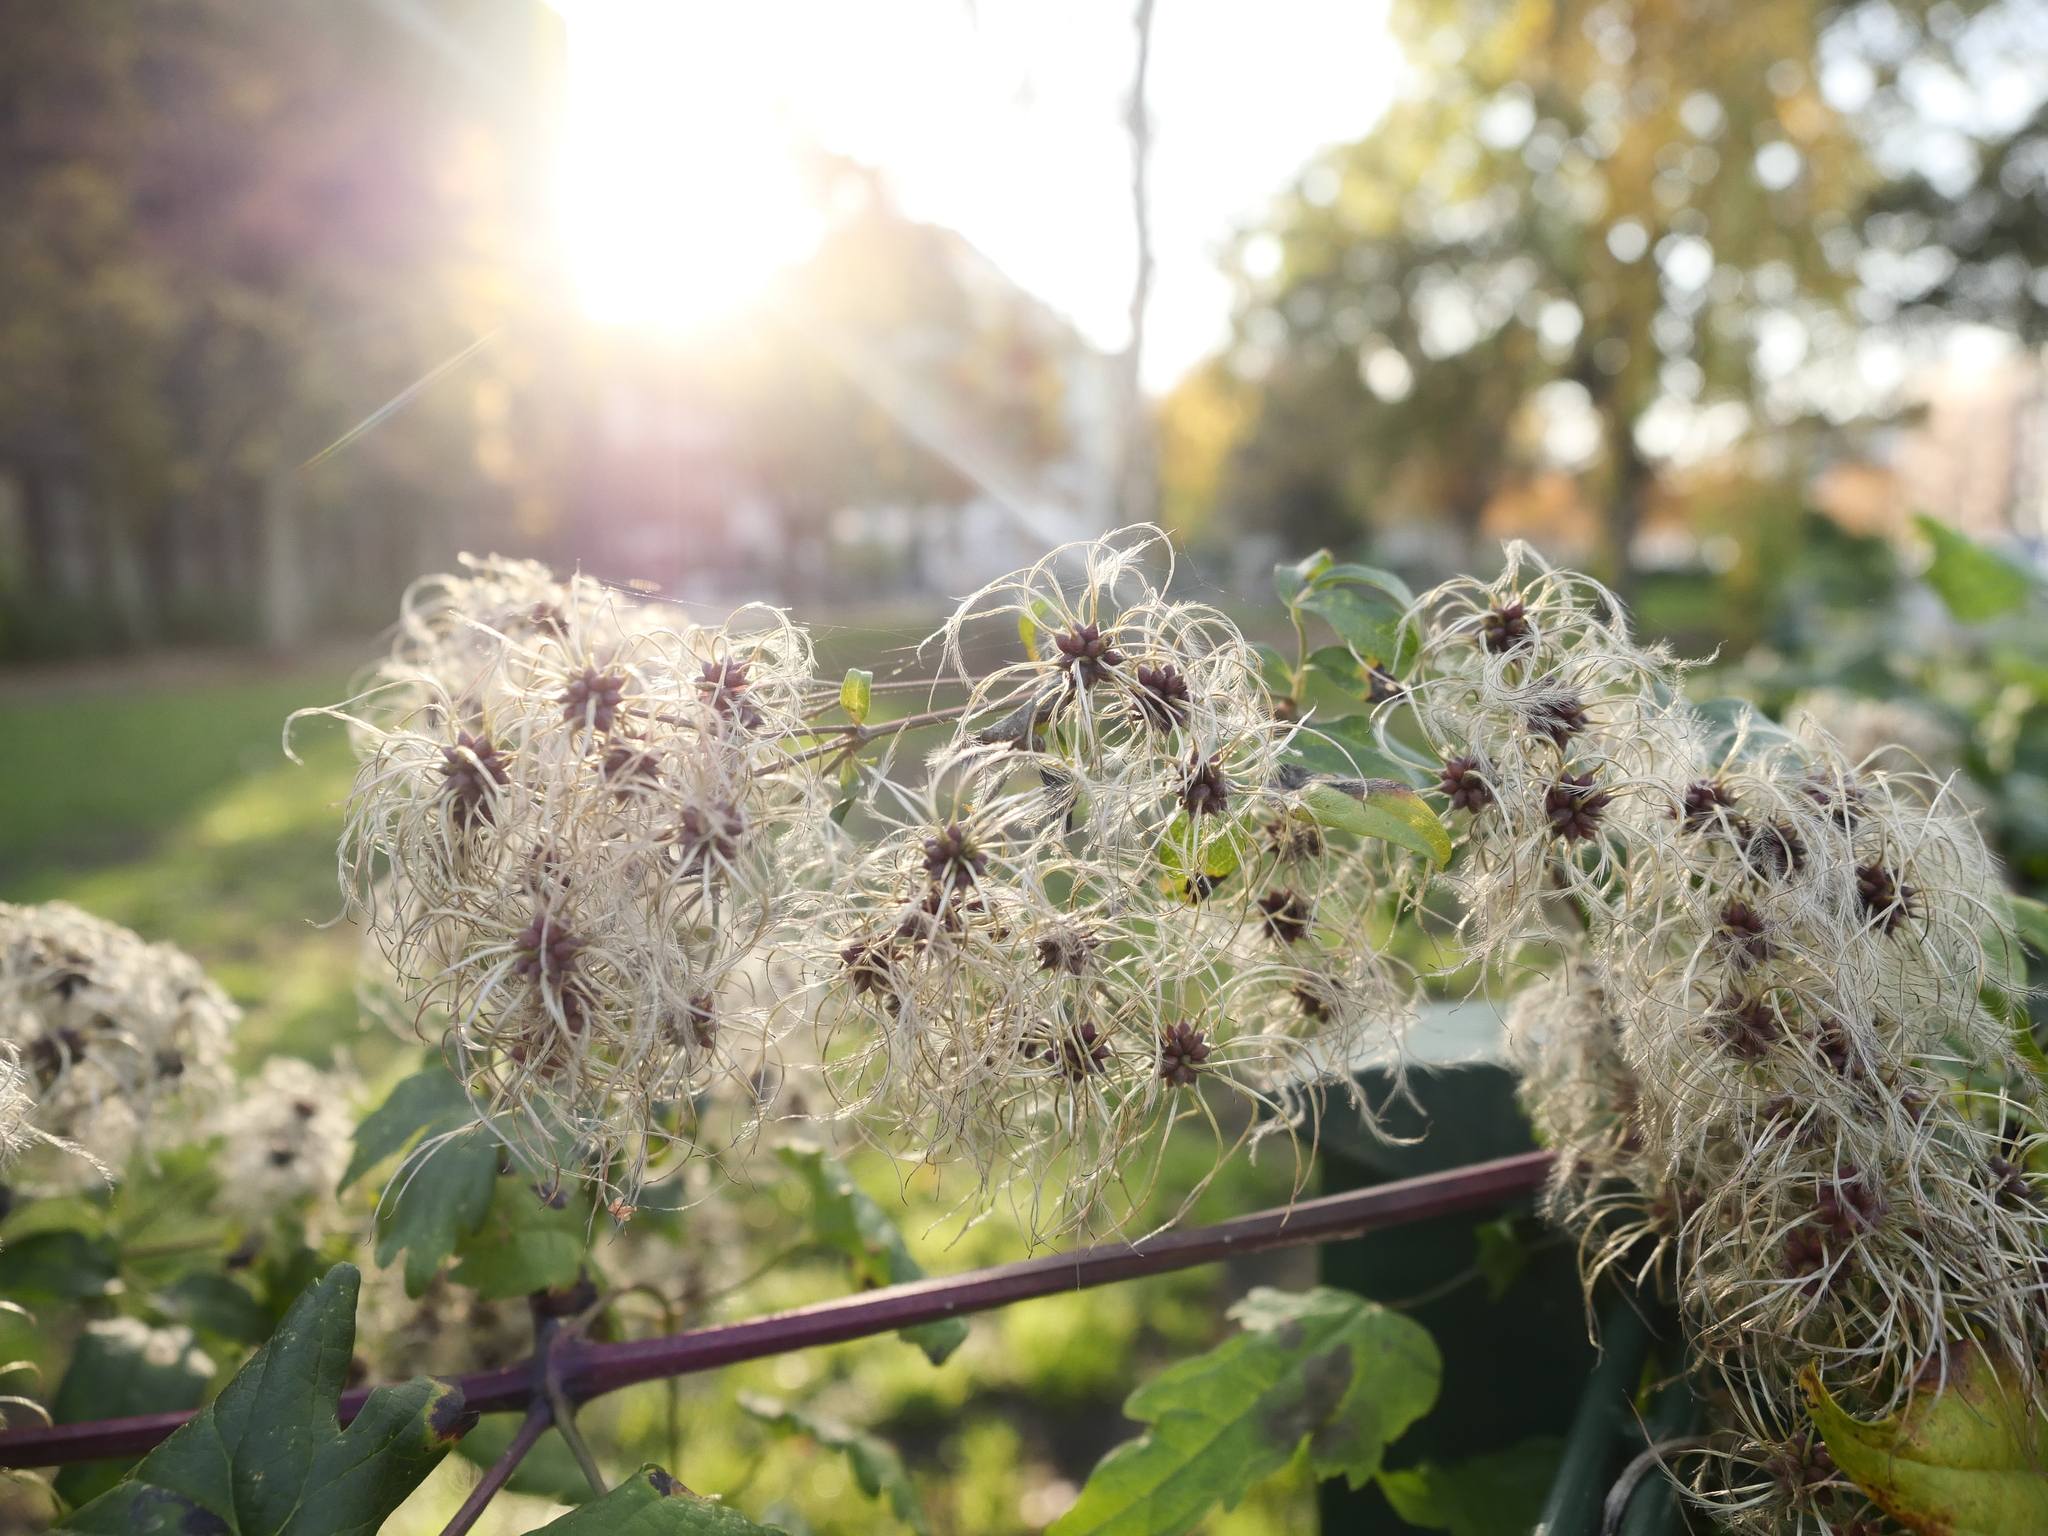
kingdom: Plantae
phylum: Tracheophyta
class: Magnoliopsida
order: Ranunculales
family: Ranunculaceae
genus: Clematis
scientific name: Clematis vitalba
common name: Evergreen clematis
